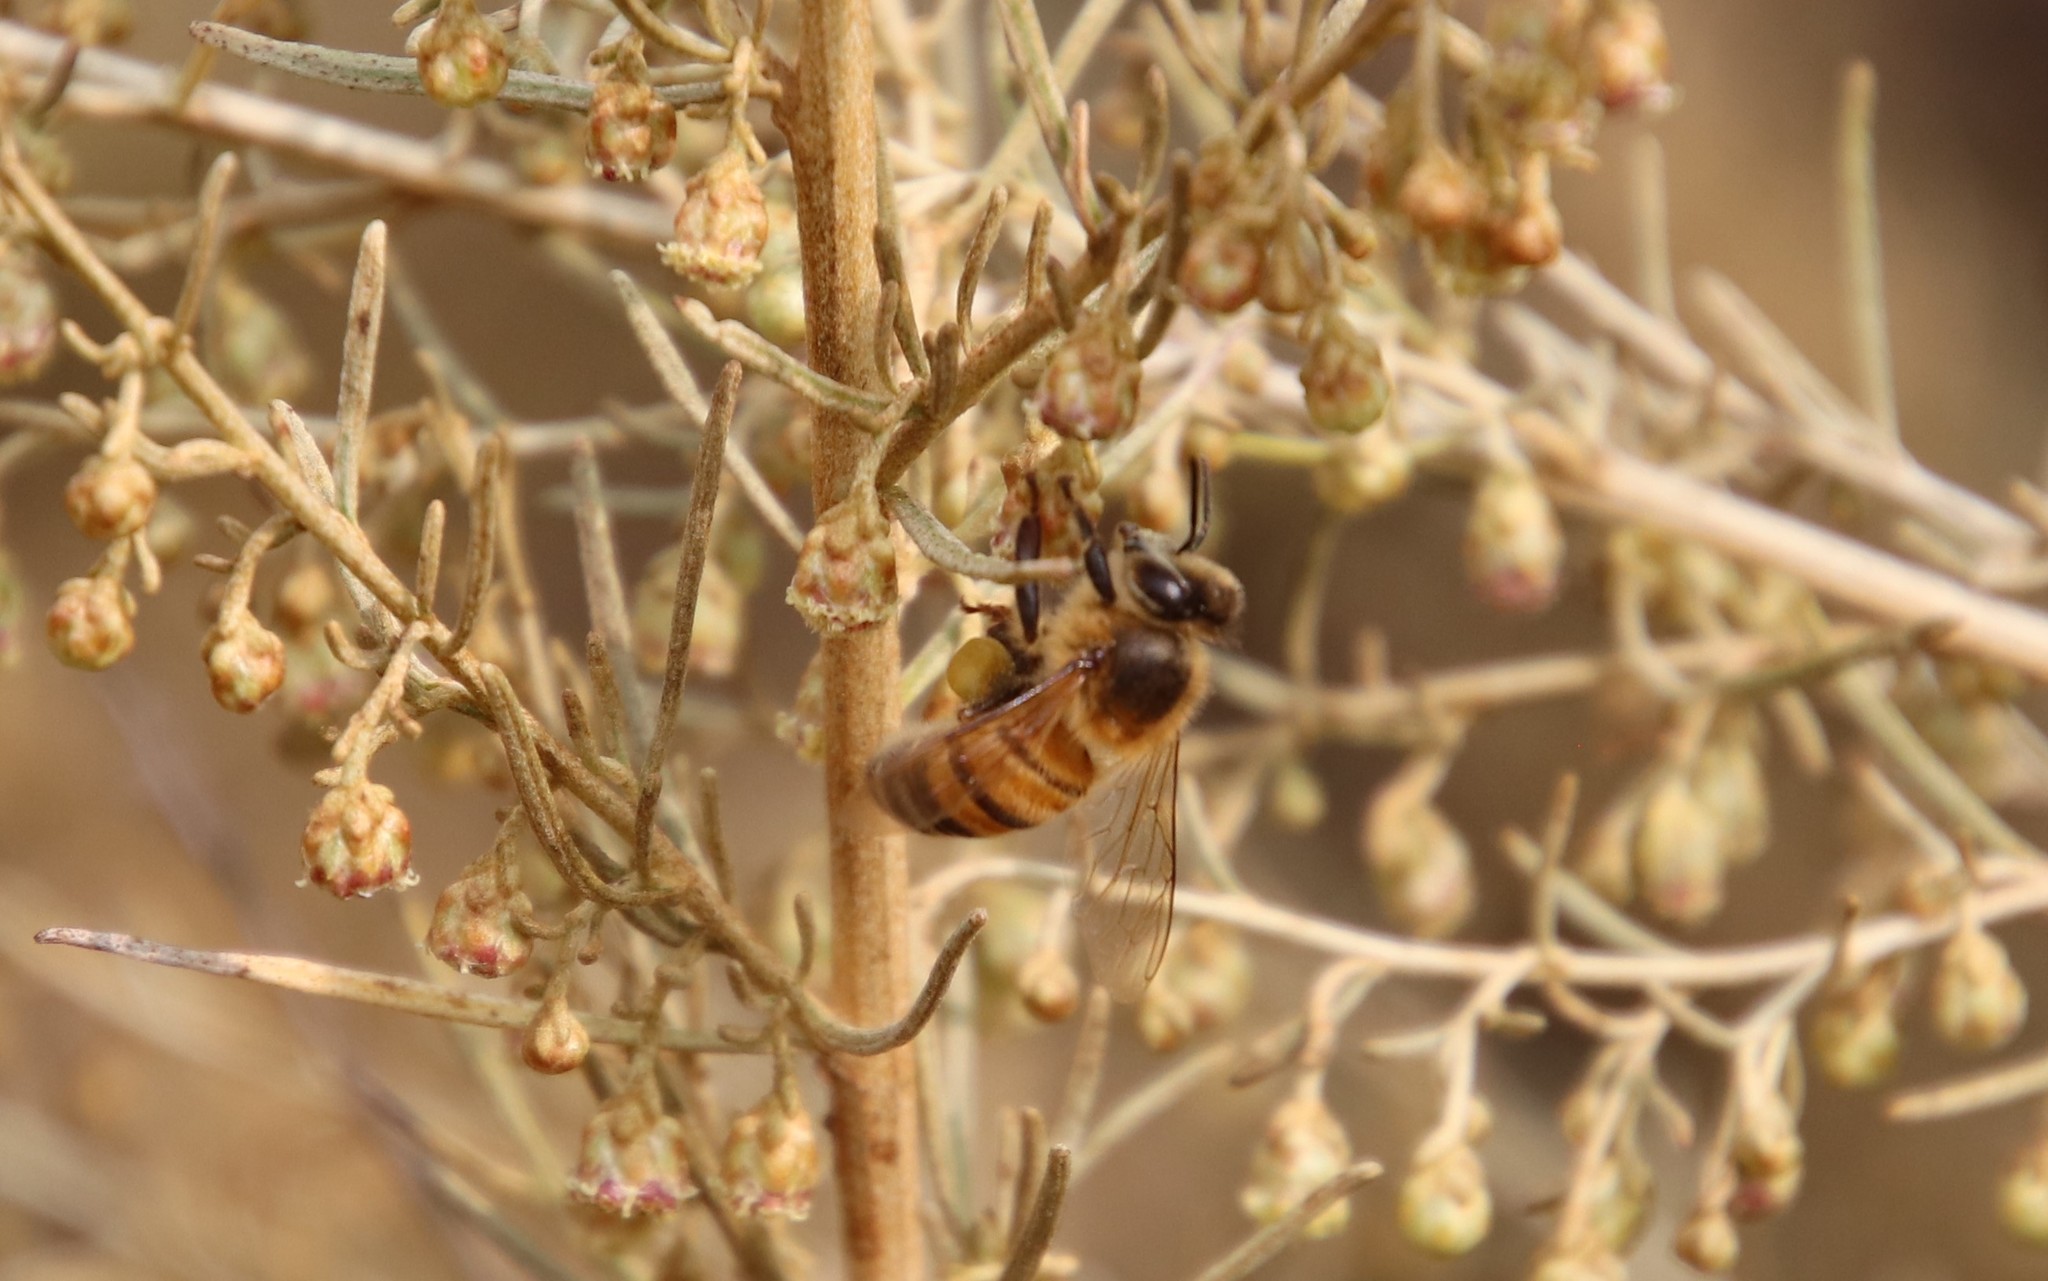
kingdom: Animalia
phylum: Arthropoda
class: Insecta
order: Hymenoptera
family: Apidae
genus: Apis
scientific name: Apis mellifera
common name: Honey bee
